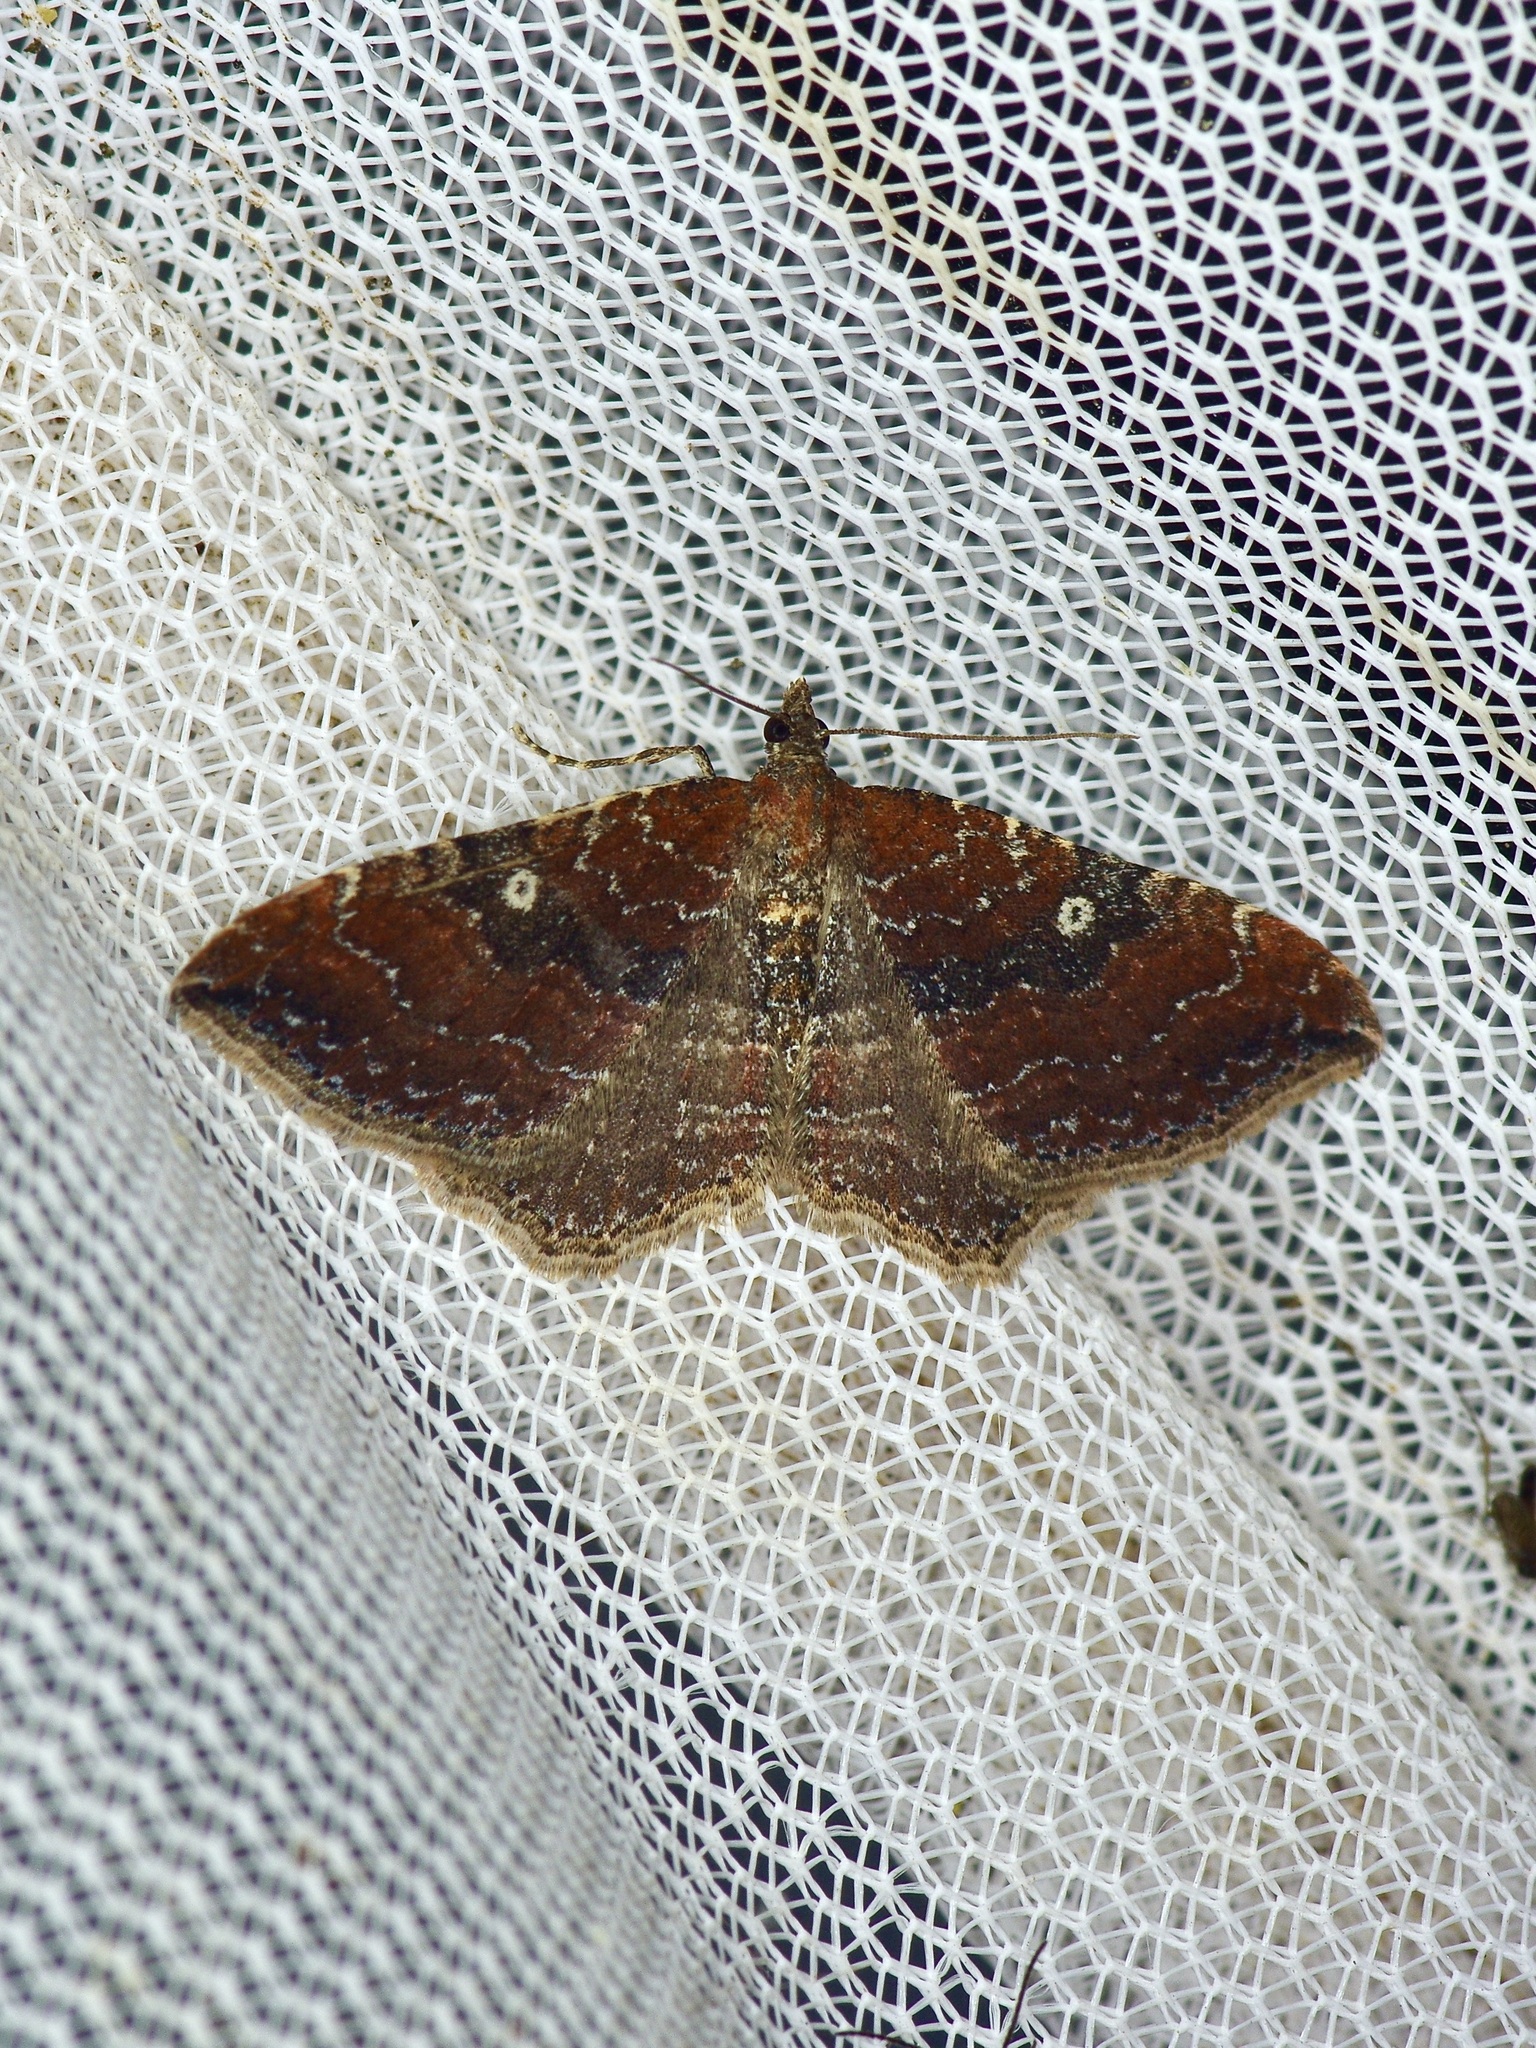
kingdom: Animalia
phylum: Arthropoda
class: Insecta
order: Lepidoptera
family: Geometridae
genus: Orthonama
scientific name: Orthonama obstipata
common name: The gem
